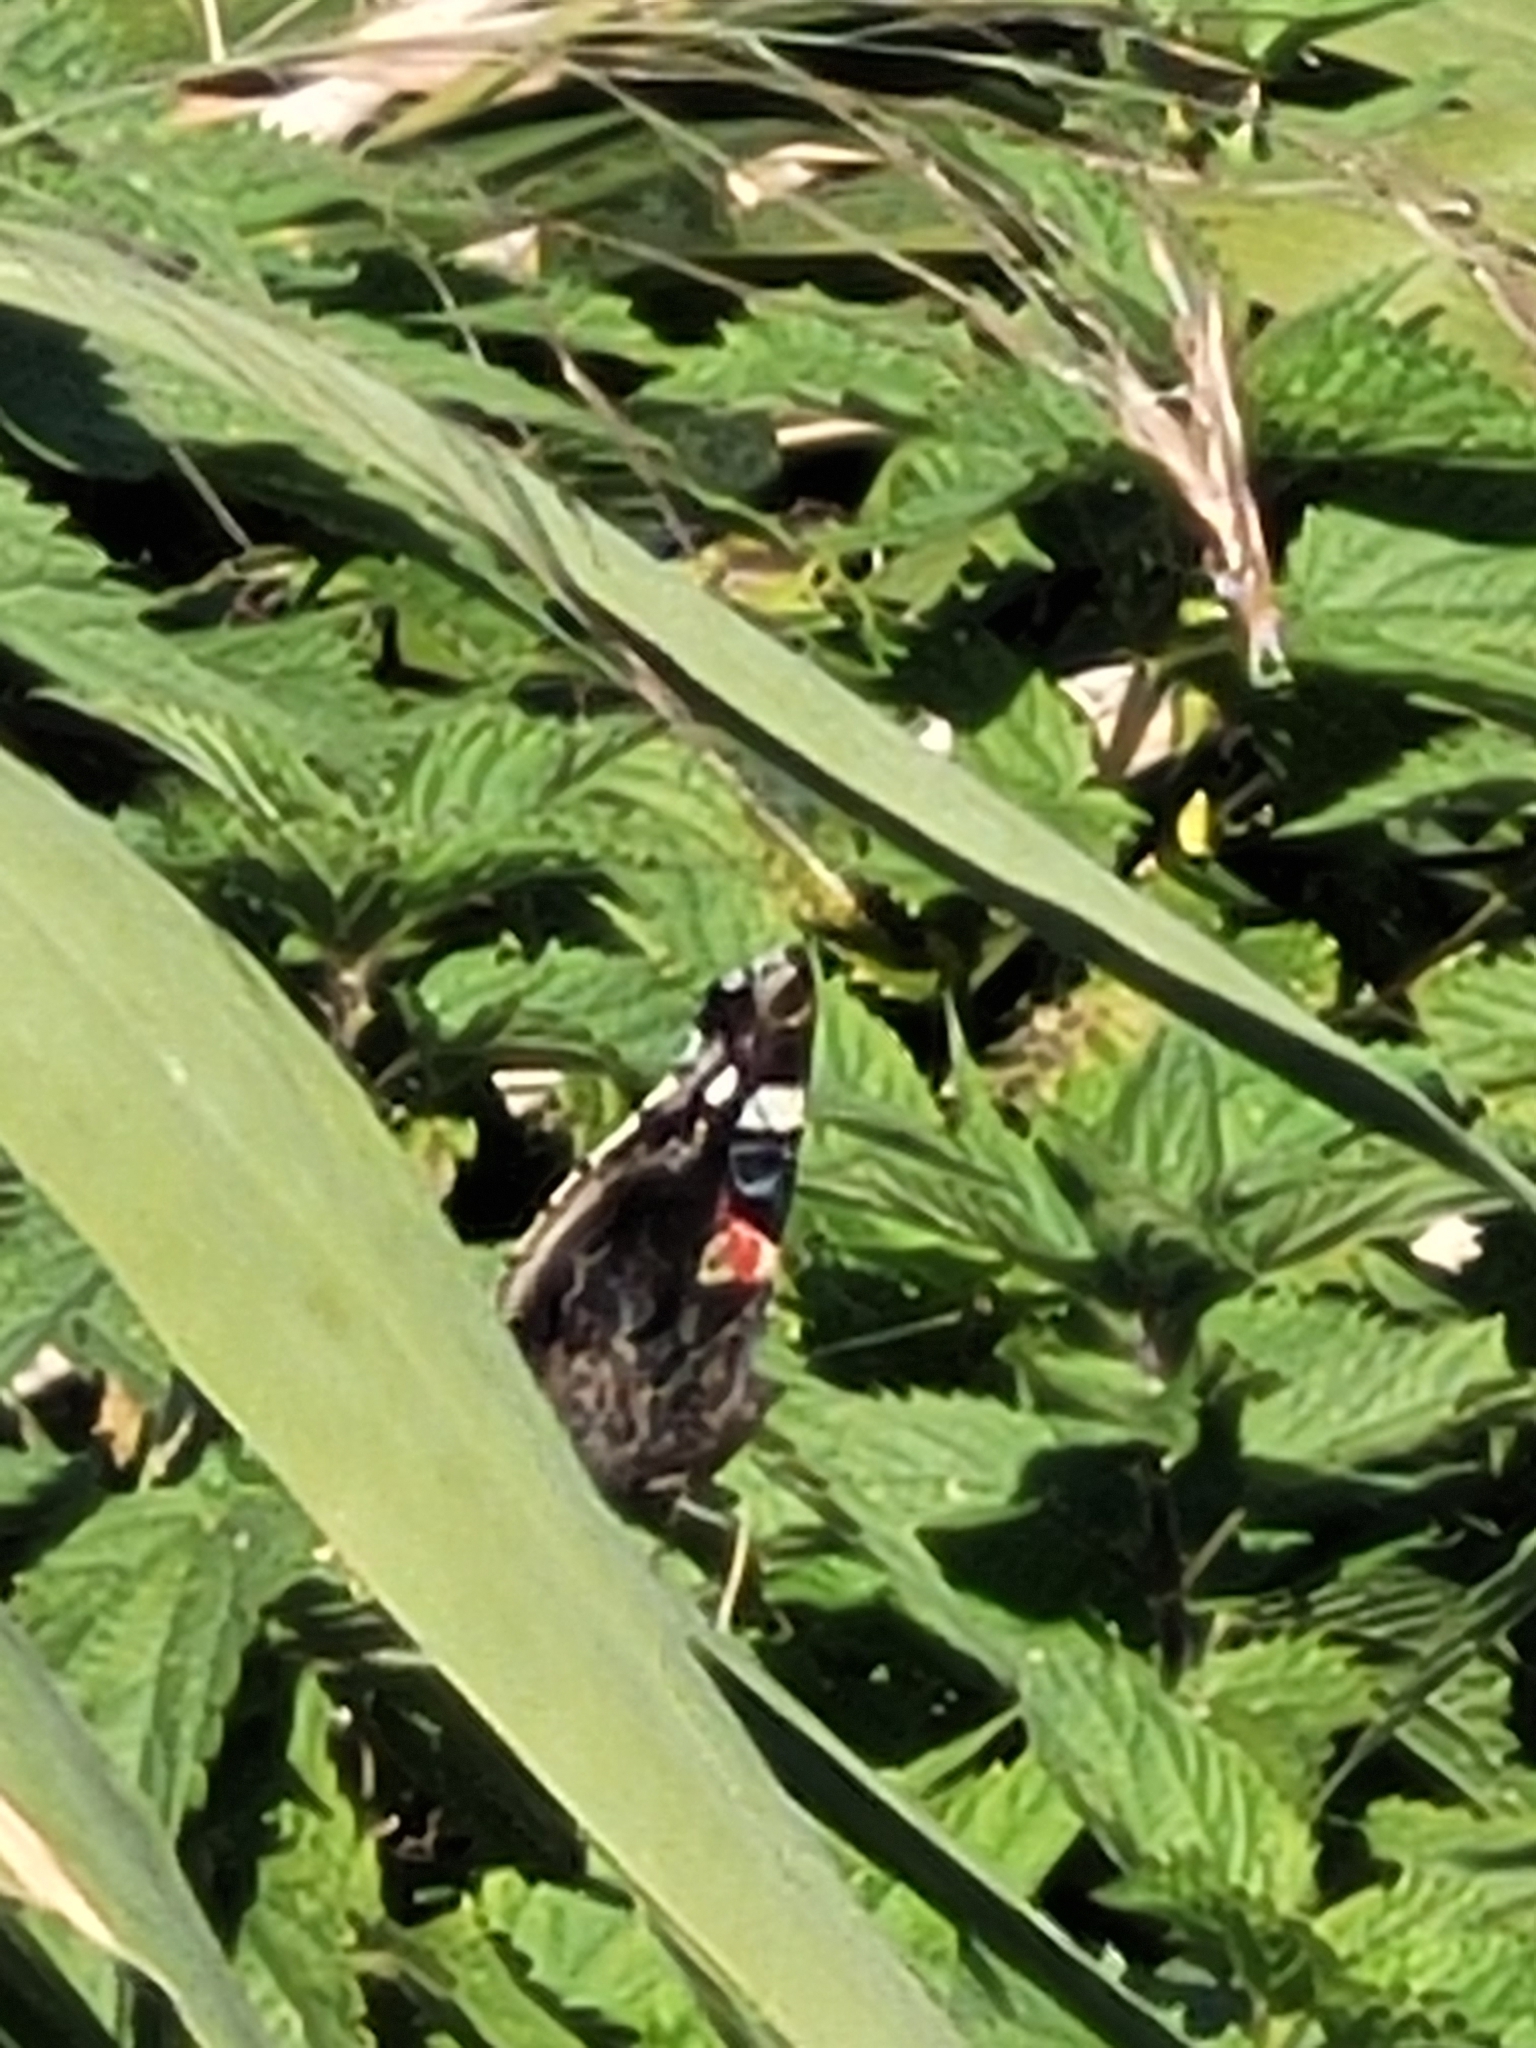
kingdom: Animalia
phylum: Arthropoda
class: Insecta
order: Lepidoptera
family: Nymphalidae
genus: Vanessa
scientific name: Vanessa atalanta
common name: Red admiral
